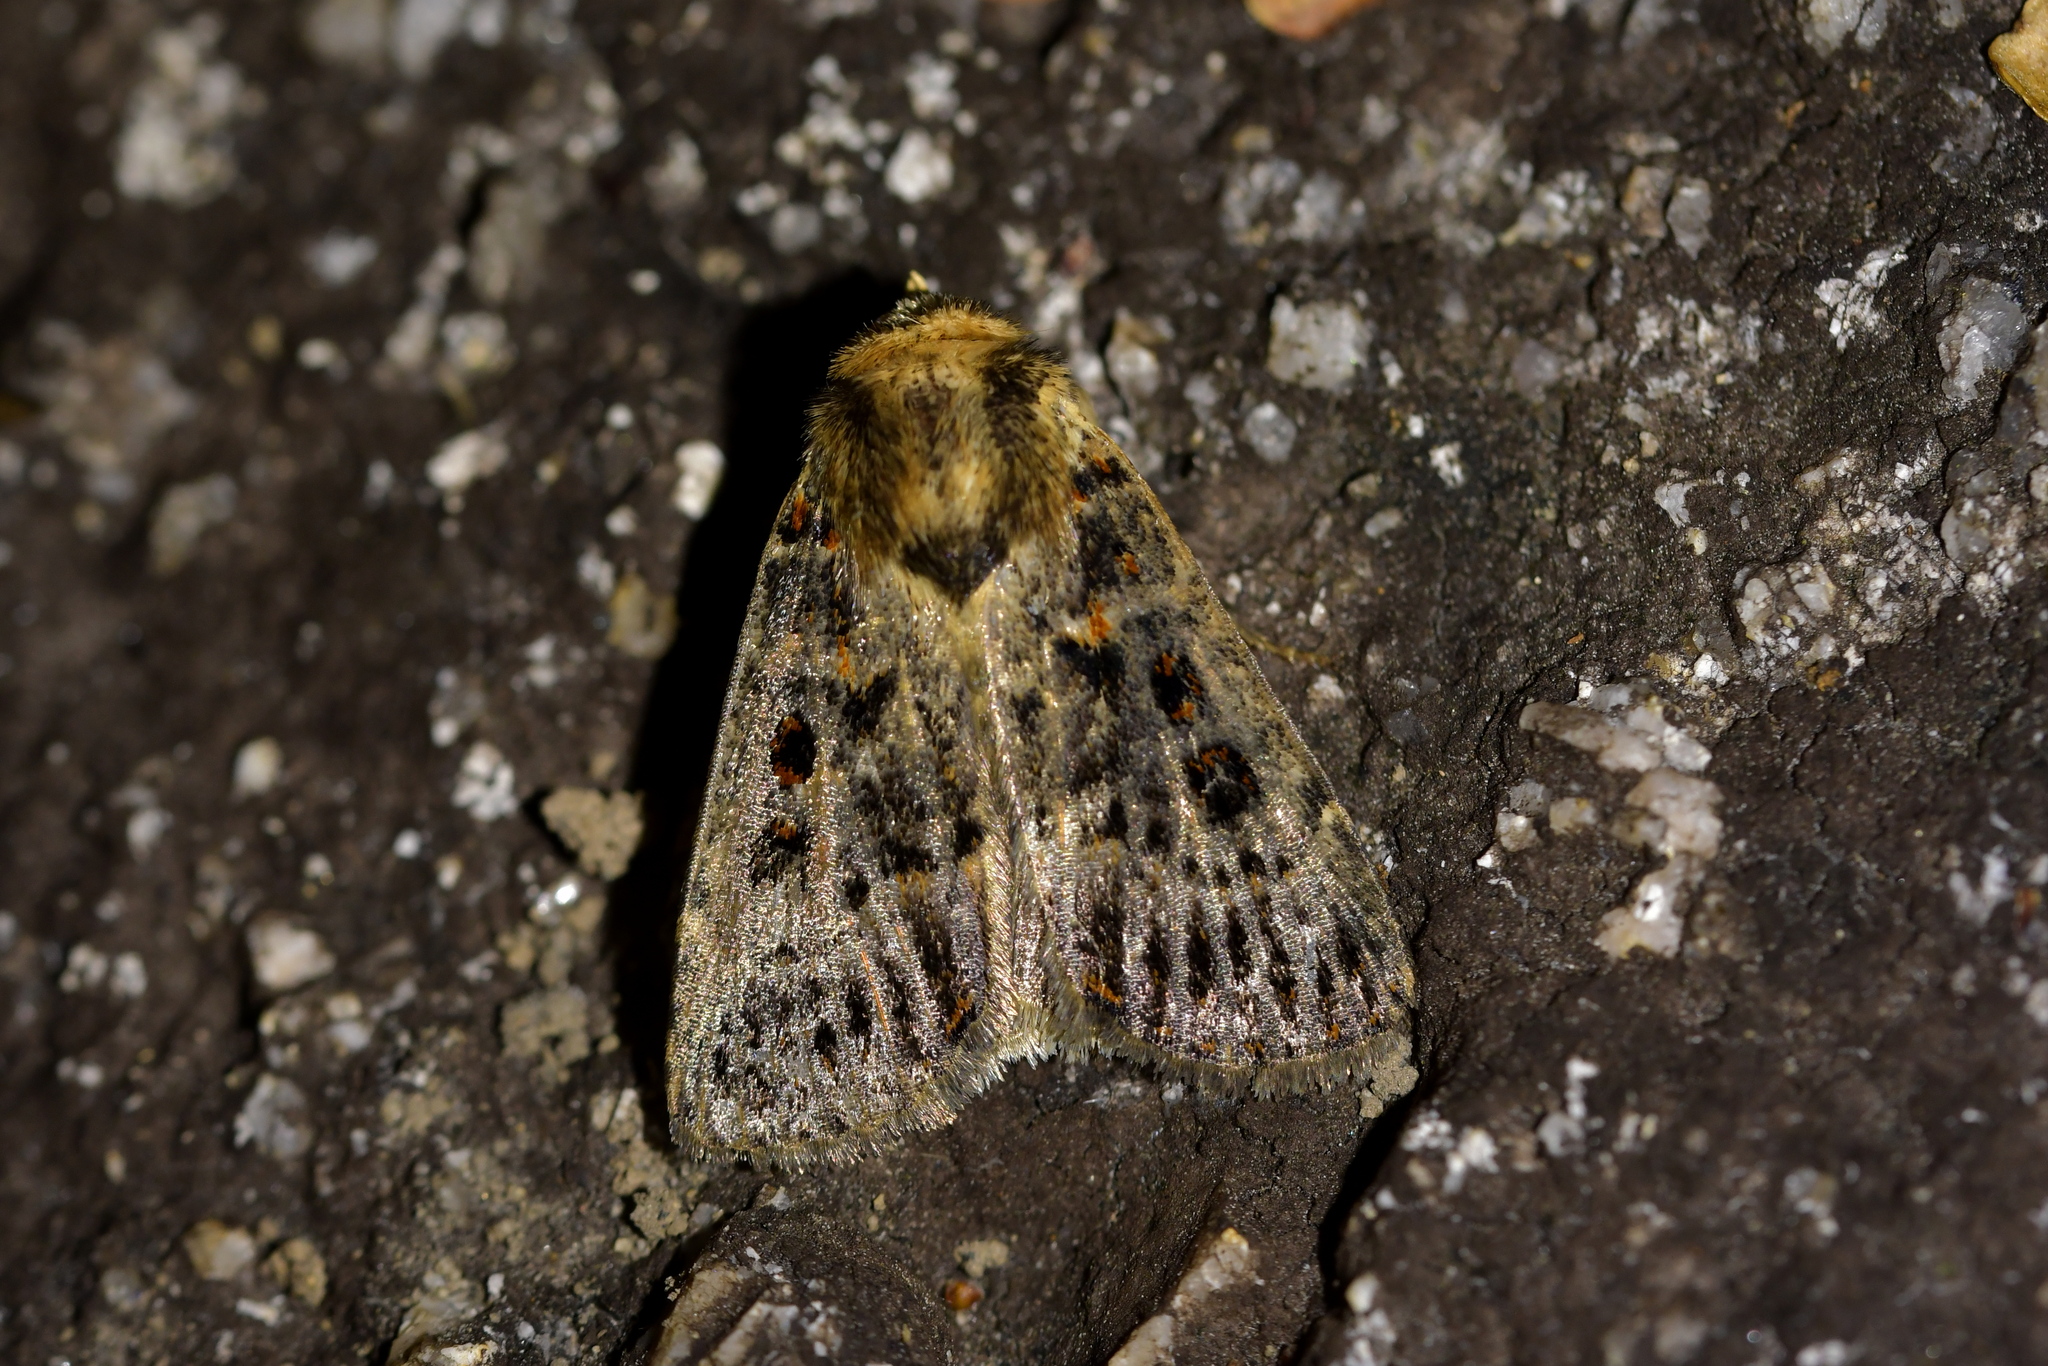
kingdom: Animalia
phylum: Arthropoda
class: Insecta
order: Lepidoptera
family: Noctuidae
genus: Proteuxoa
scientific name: Proteuxoa sanguinipuncta
